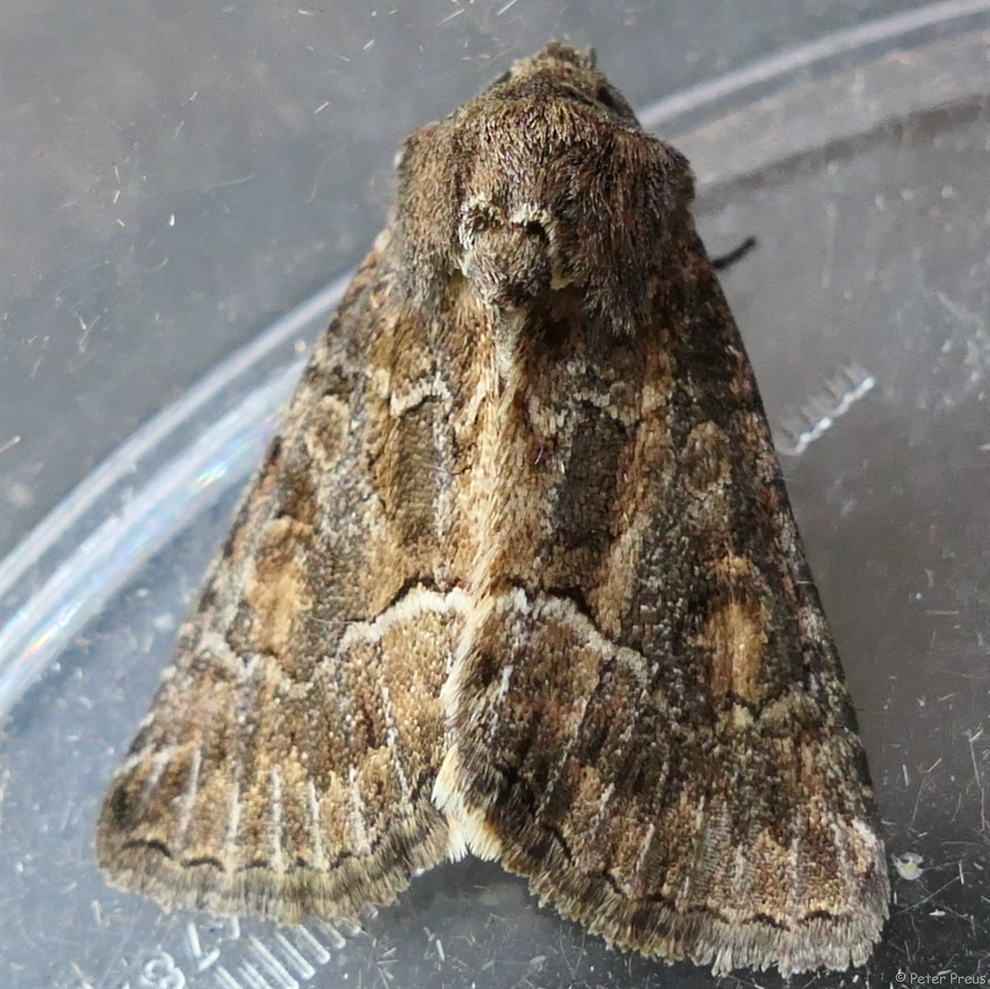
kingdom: Animalia
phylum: Arthropoda
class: Insecta
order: Lepidoptera
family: Noctuidae
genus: Thalpophila
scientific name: Thalpophila matura
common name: Straw underwing
